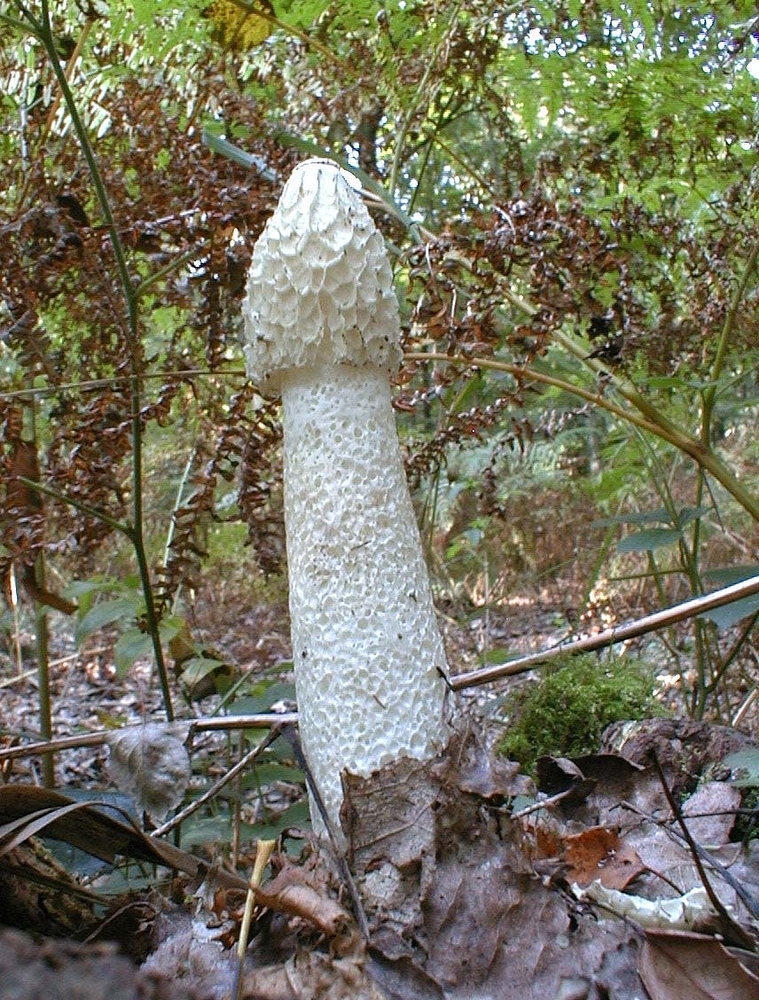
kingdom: Fungi
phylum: Basidiomycota
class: Agaricomycetes
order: Phallales
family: Phallaceae
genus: Phallus
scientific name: Phallus impudicus
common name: Common stinkhorn
